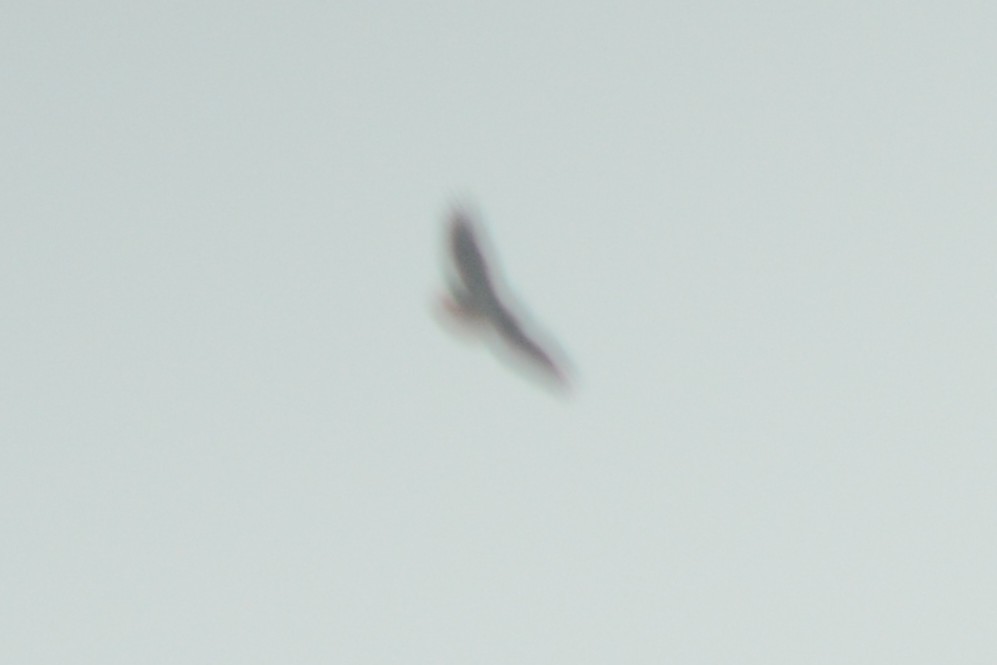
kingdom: Animalia
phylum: Chordata
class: Aves
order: Accipitriformes
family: Accipitridae
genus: Buteo
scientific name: Buteo jamaicensis
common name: Red-tailed hawk
